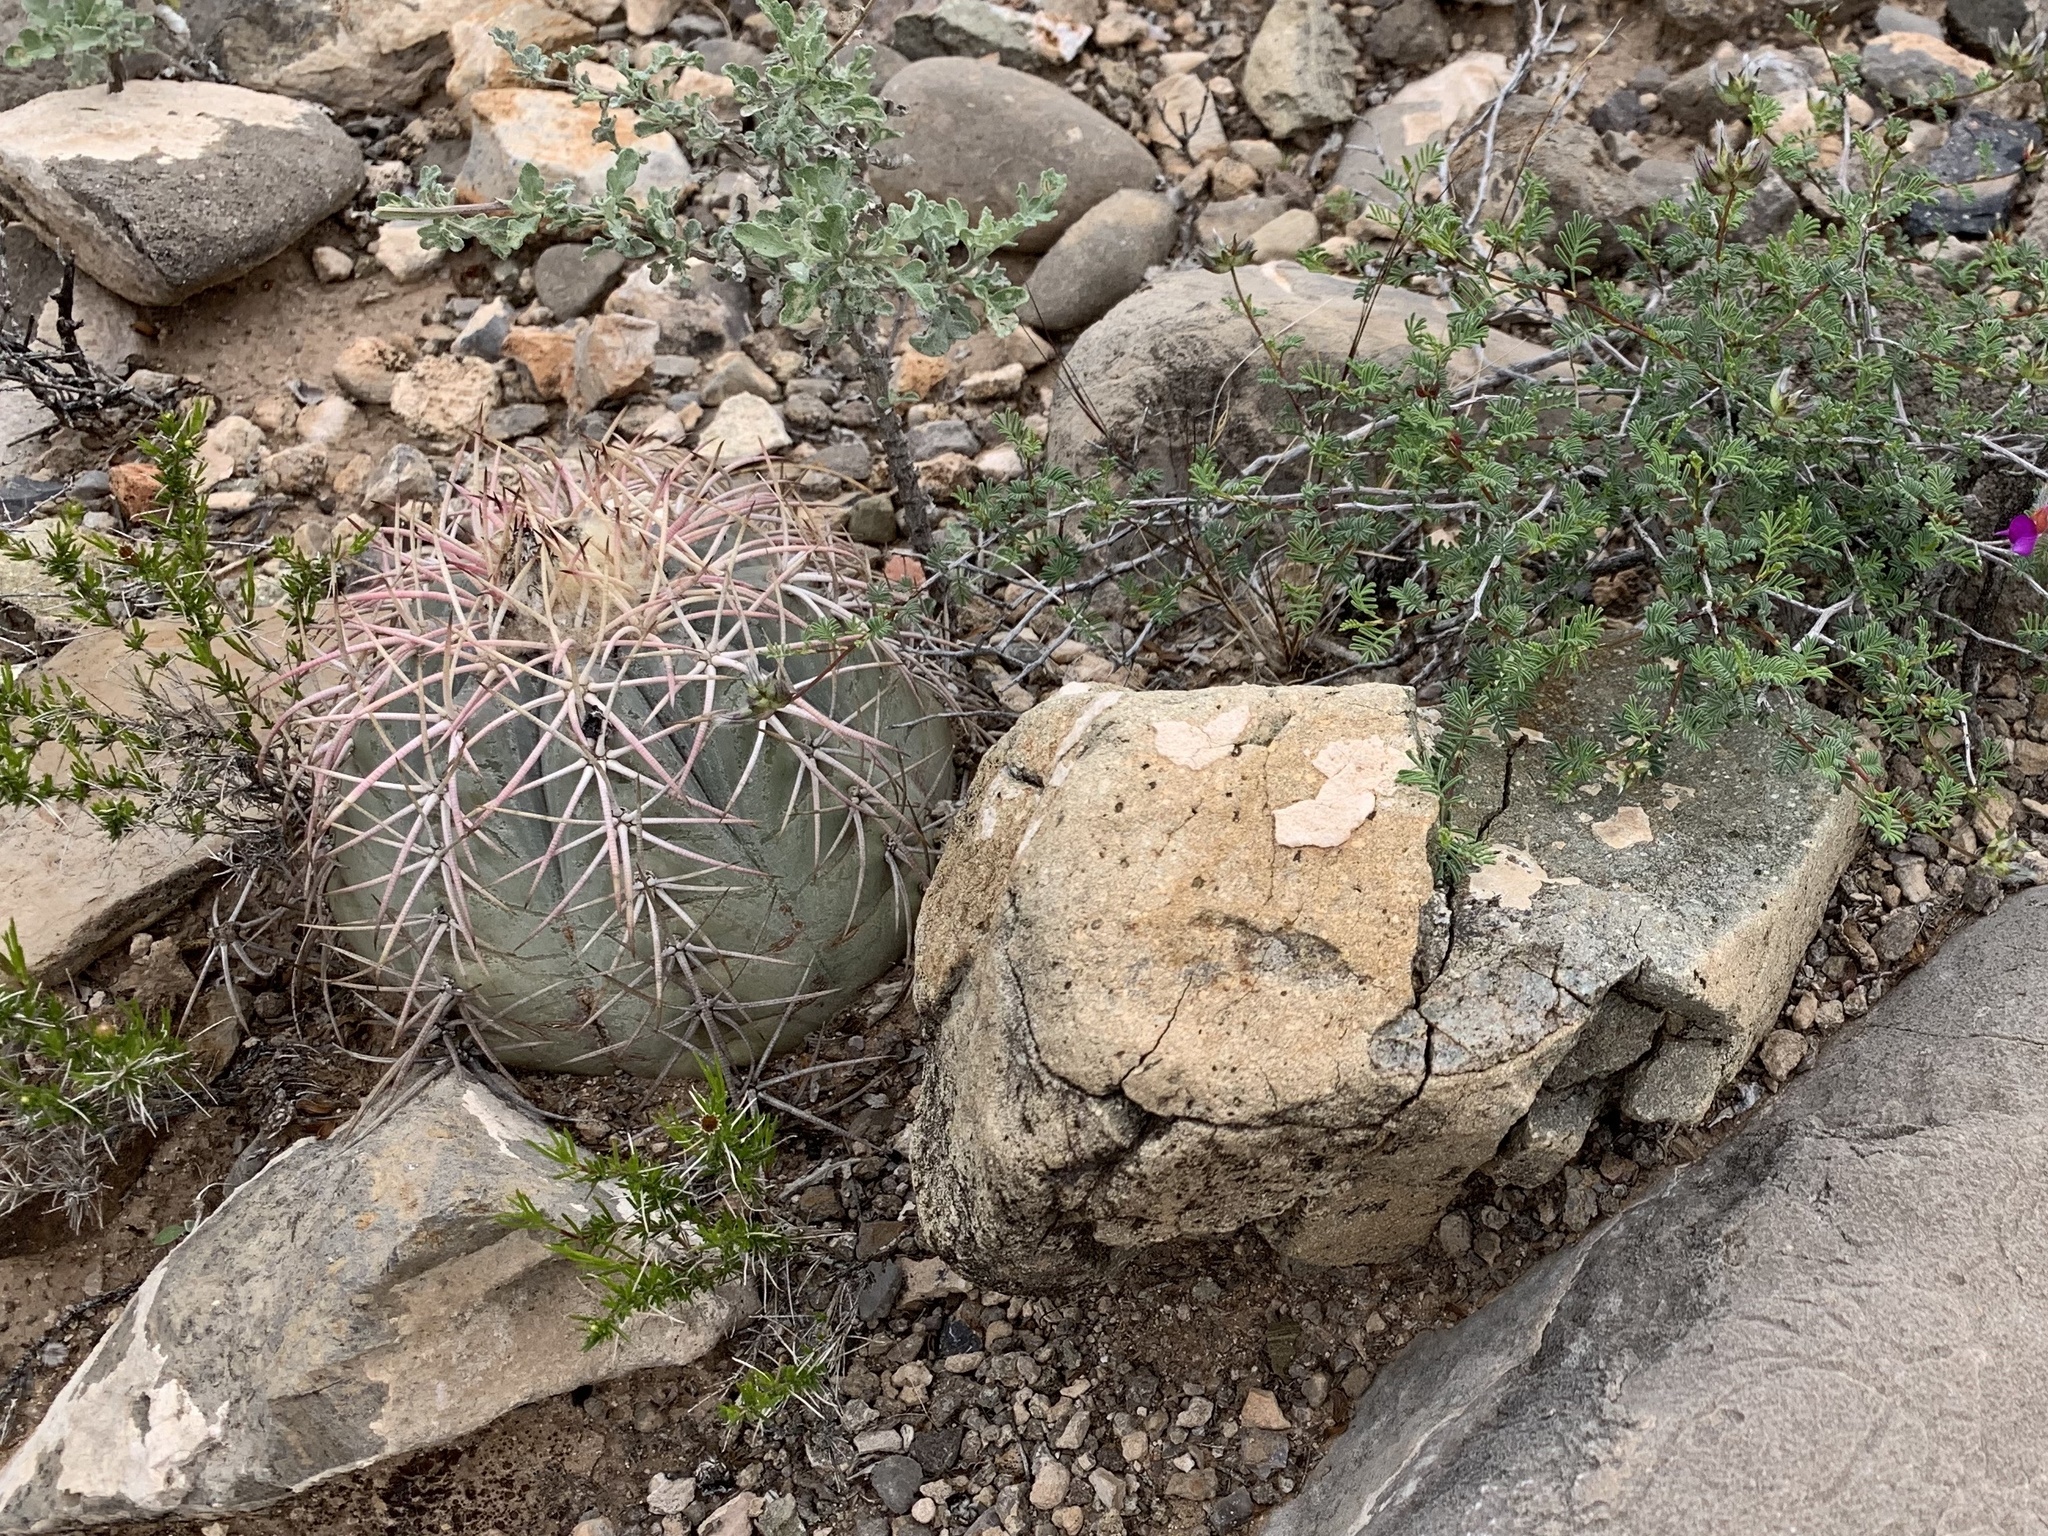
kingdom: Plantae
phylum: Tracheophyta
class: Magnoliopsida
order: Caryophyllales
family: Cactaceae
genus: Echinocactus
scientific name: Echinocactus horizonthalonius
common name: Devilshead
